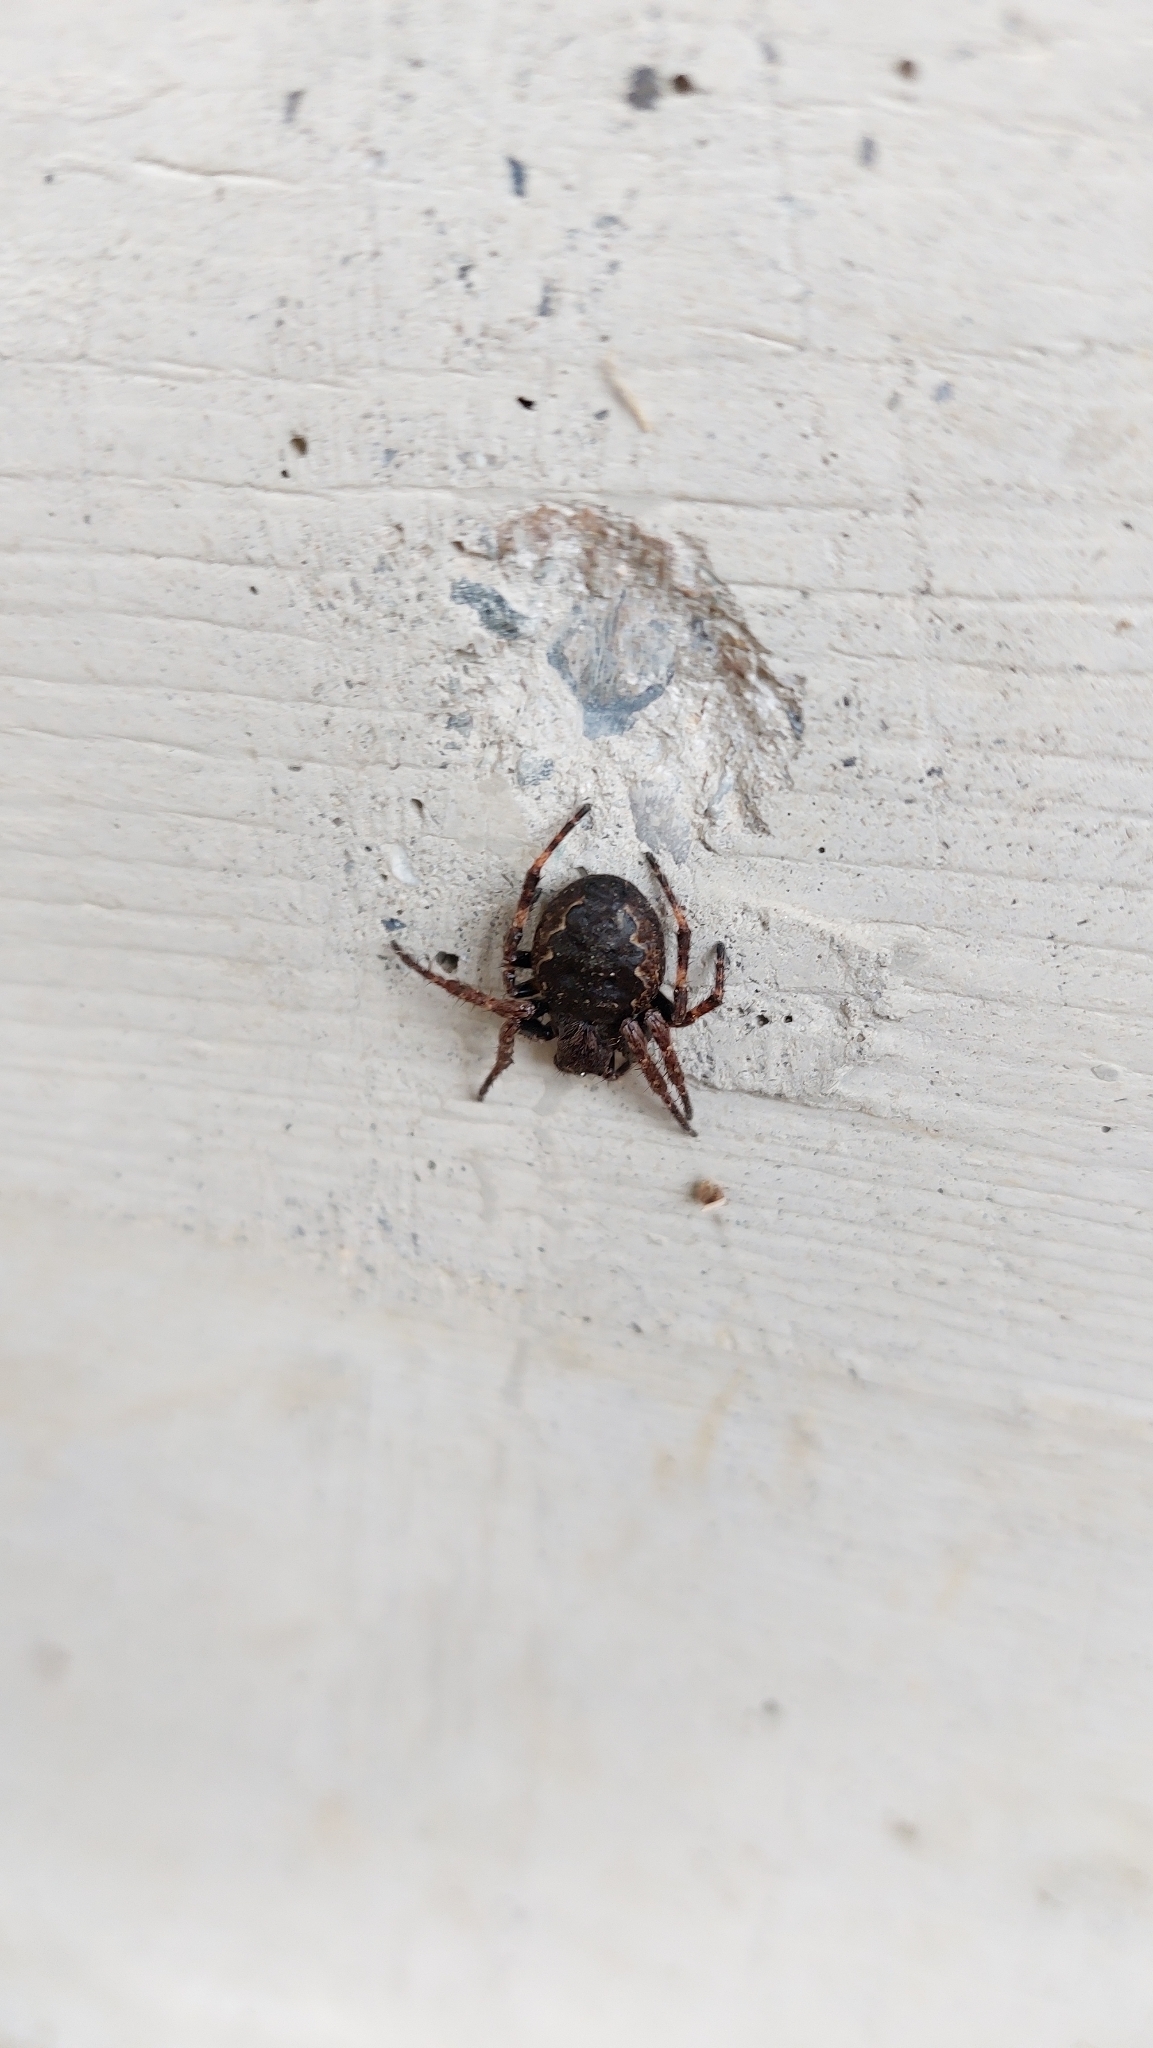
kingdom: Animalia
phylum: Arthropoda
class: Arachnida
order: Araneae
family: Araneidae
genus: Nuctenea
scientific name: Nuctenea umbratica
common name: Toad spider
